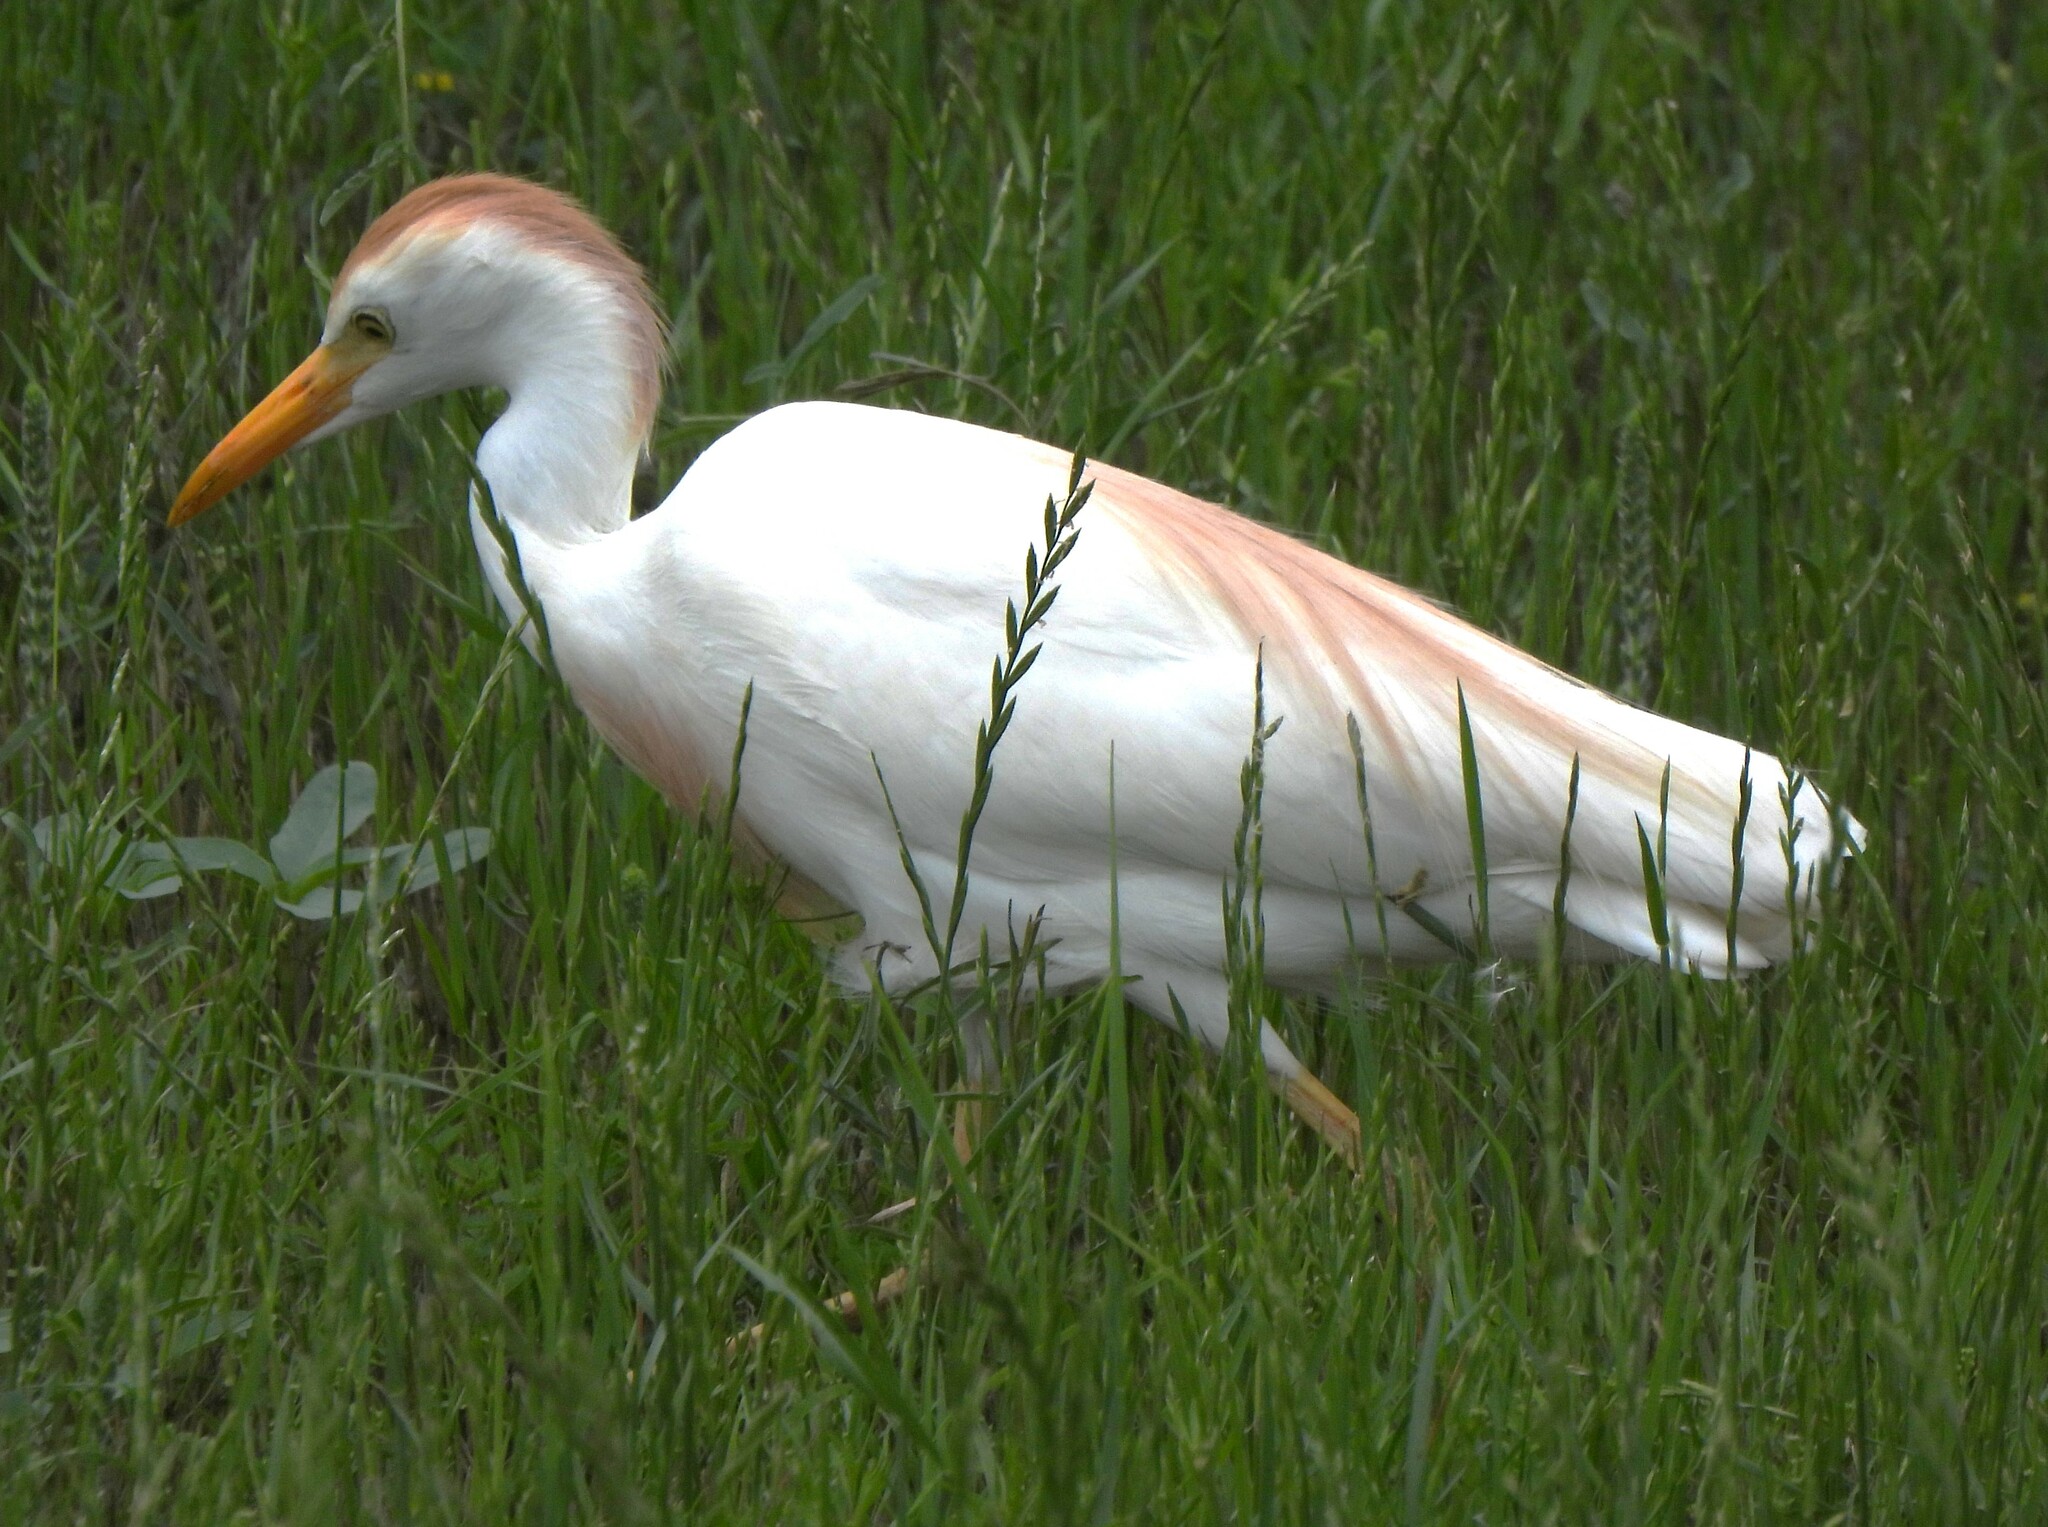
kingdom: Animalia
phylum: Chordata
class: Aves
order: Pelecaniformes
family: Ardeidae
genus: Bubulcus
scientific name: Bubulcus ibis
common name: Cattle egret
